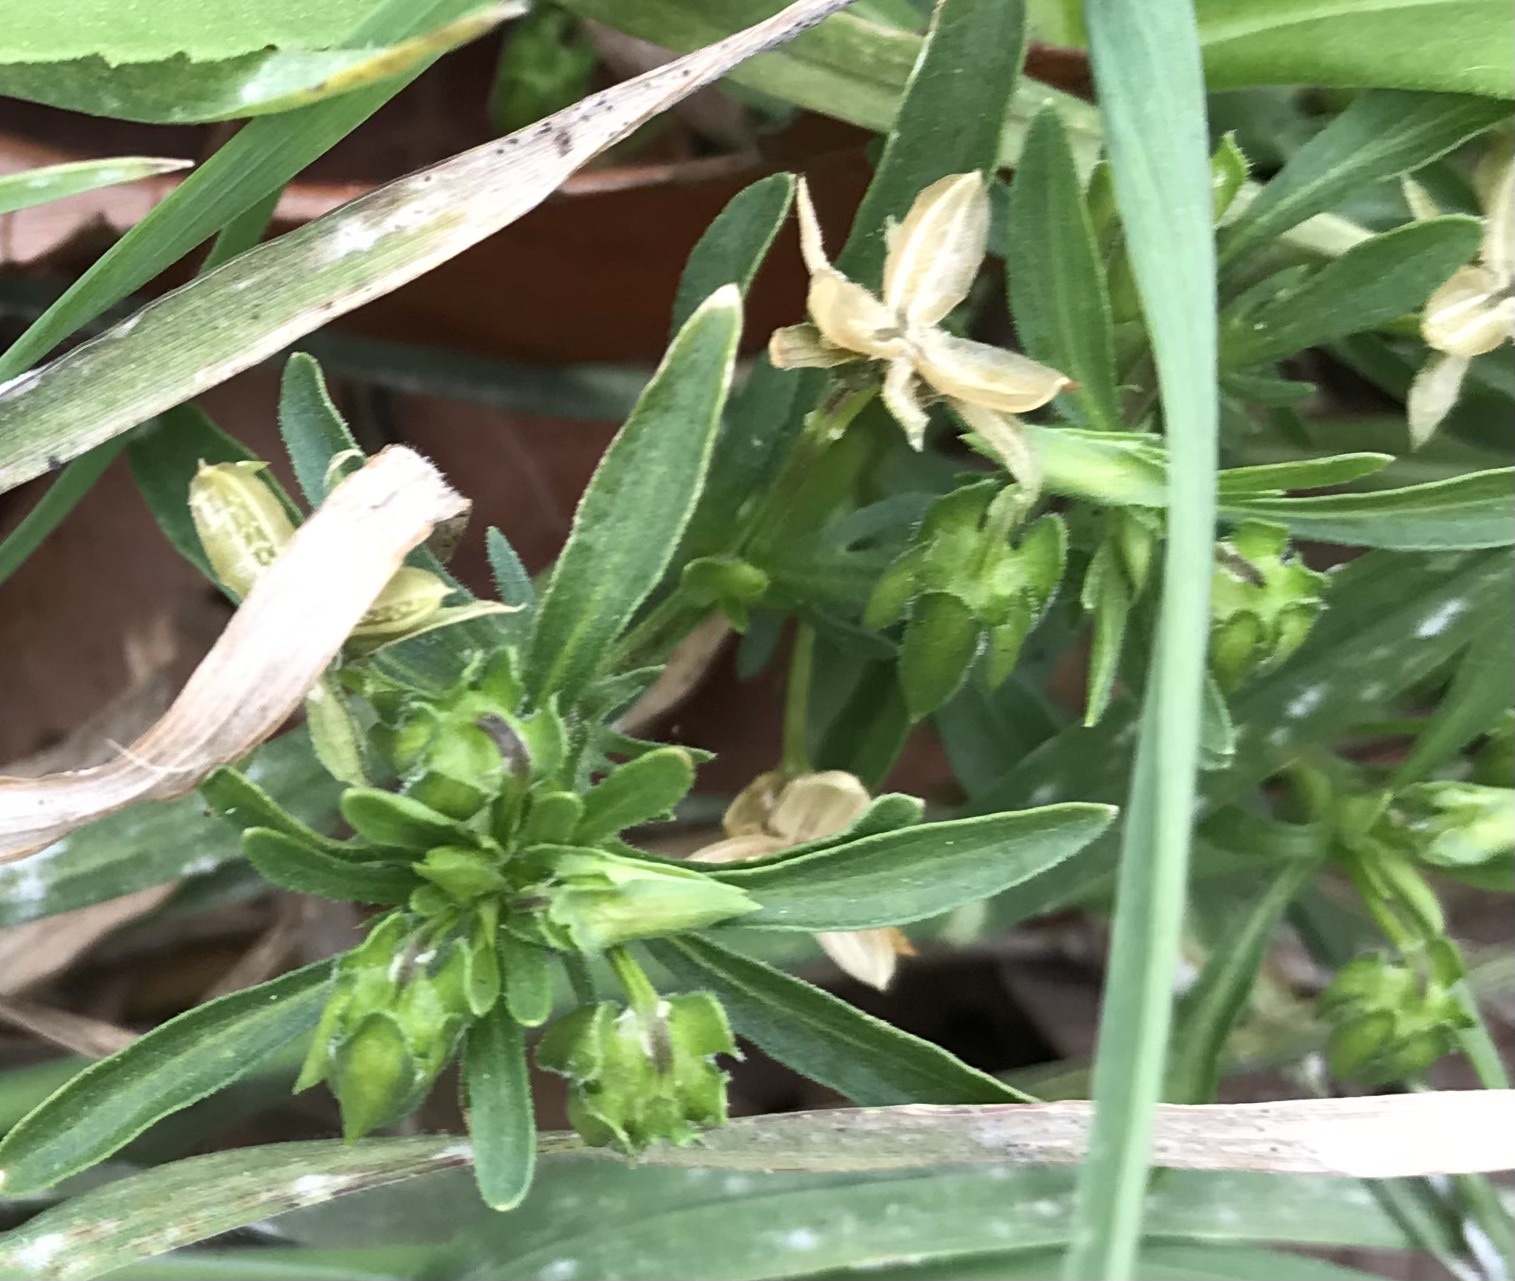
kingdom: Plantae
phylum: Tracheophyta
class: Magnoliopsida
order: Malpighiales
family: Violaceae
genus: Viola
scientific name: Viola rafinesquei
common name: American field pansy
